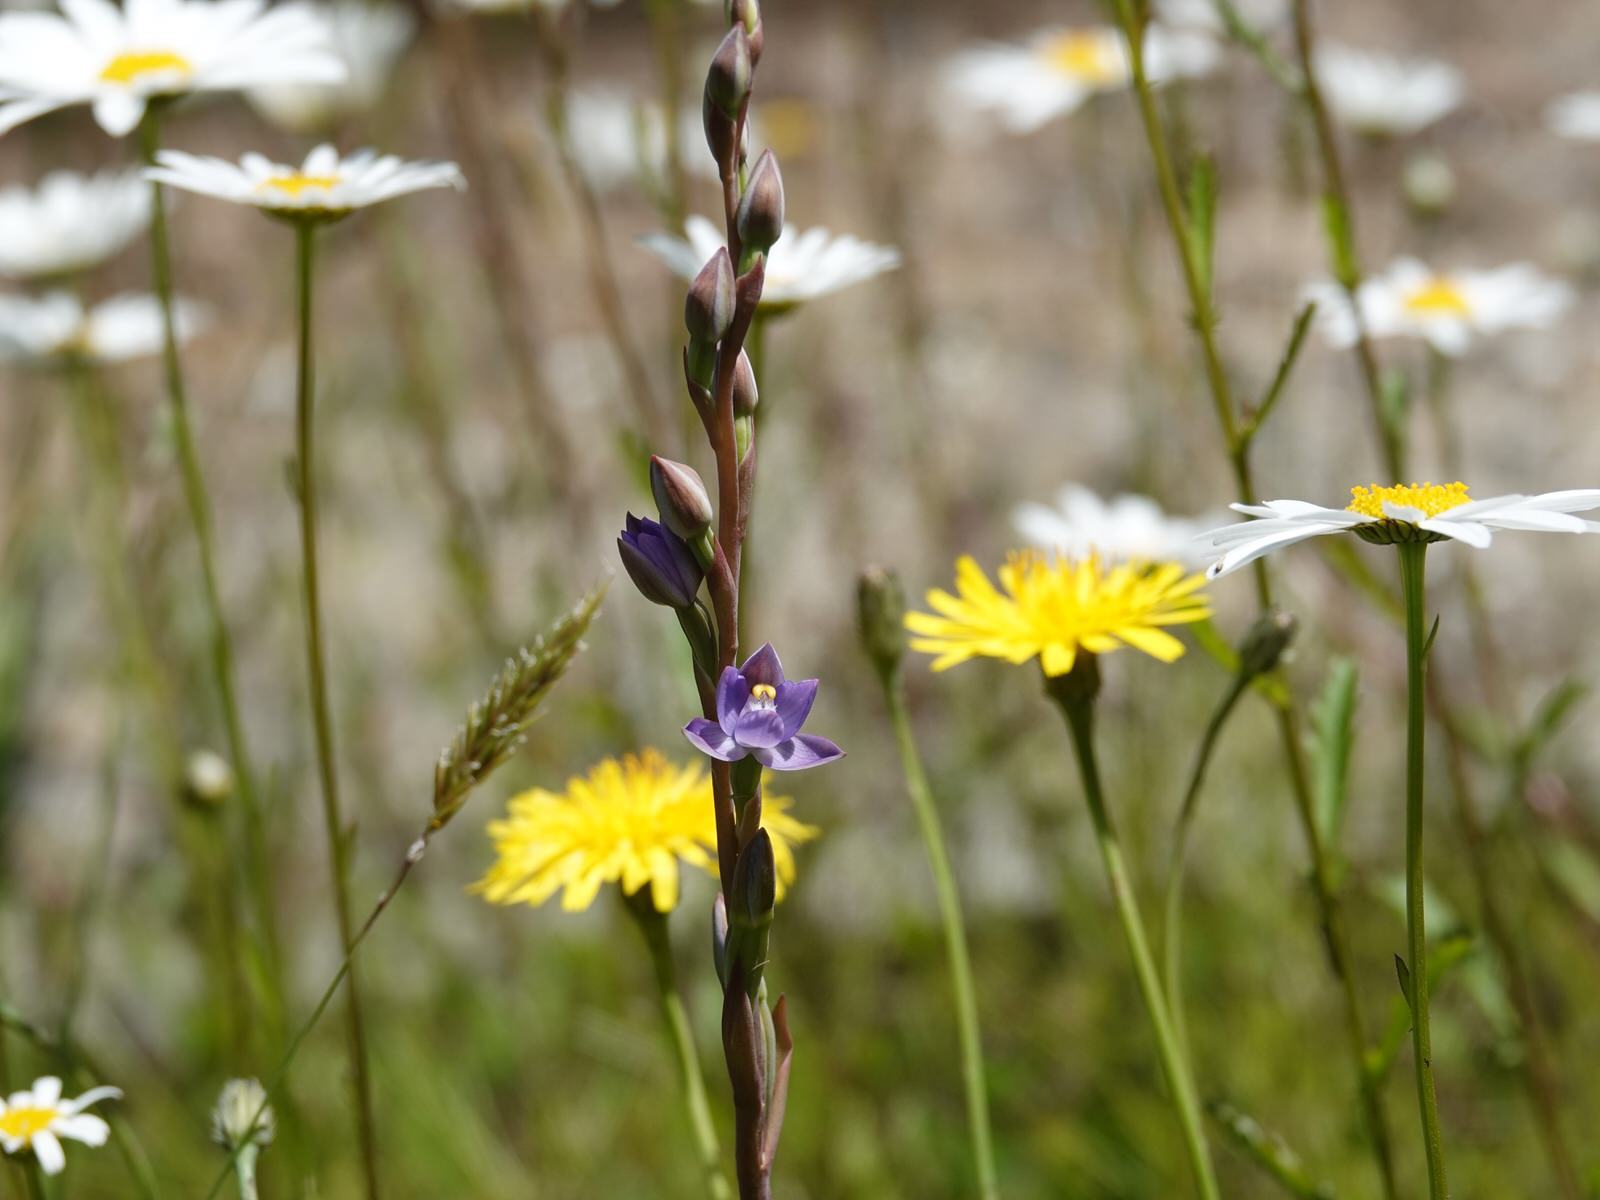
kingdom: Plantae
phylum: Tracheophyta
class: Liliopsida
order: Asparagales
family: Orchidaceae
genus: Thelymitra
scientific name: Thelymitra pauciflora
